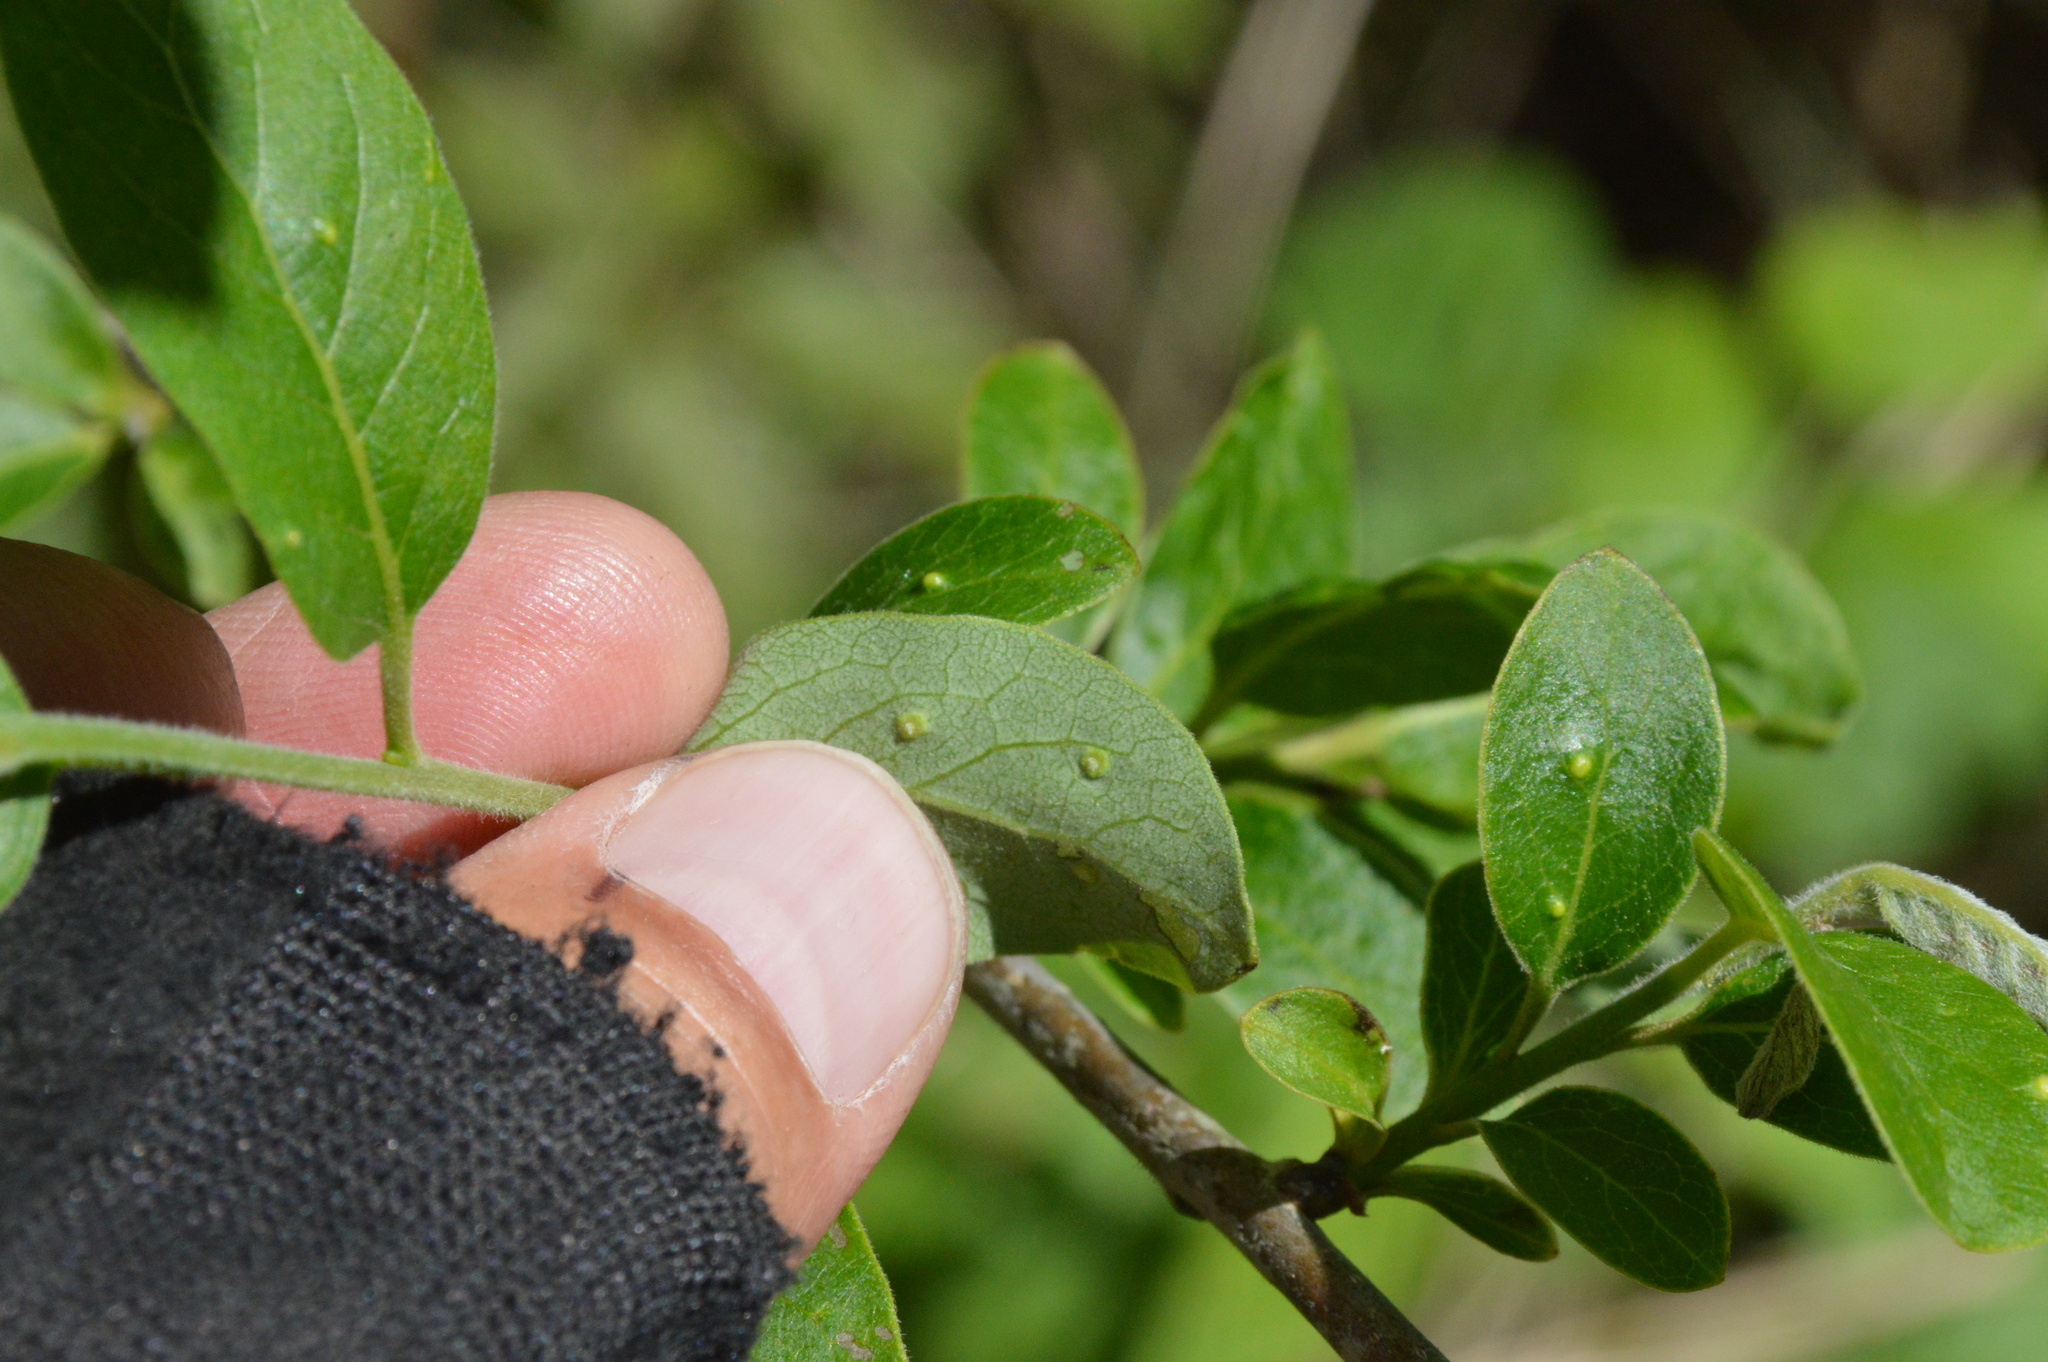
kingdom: Animalia
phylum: Arthropoda
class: Arachnida
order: Trombidiformes
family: Eriophyidae
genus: Aceria
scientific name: Aceria
